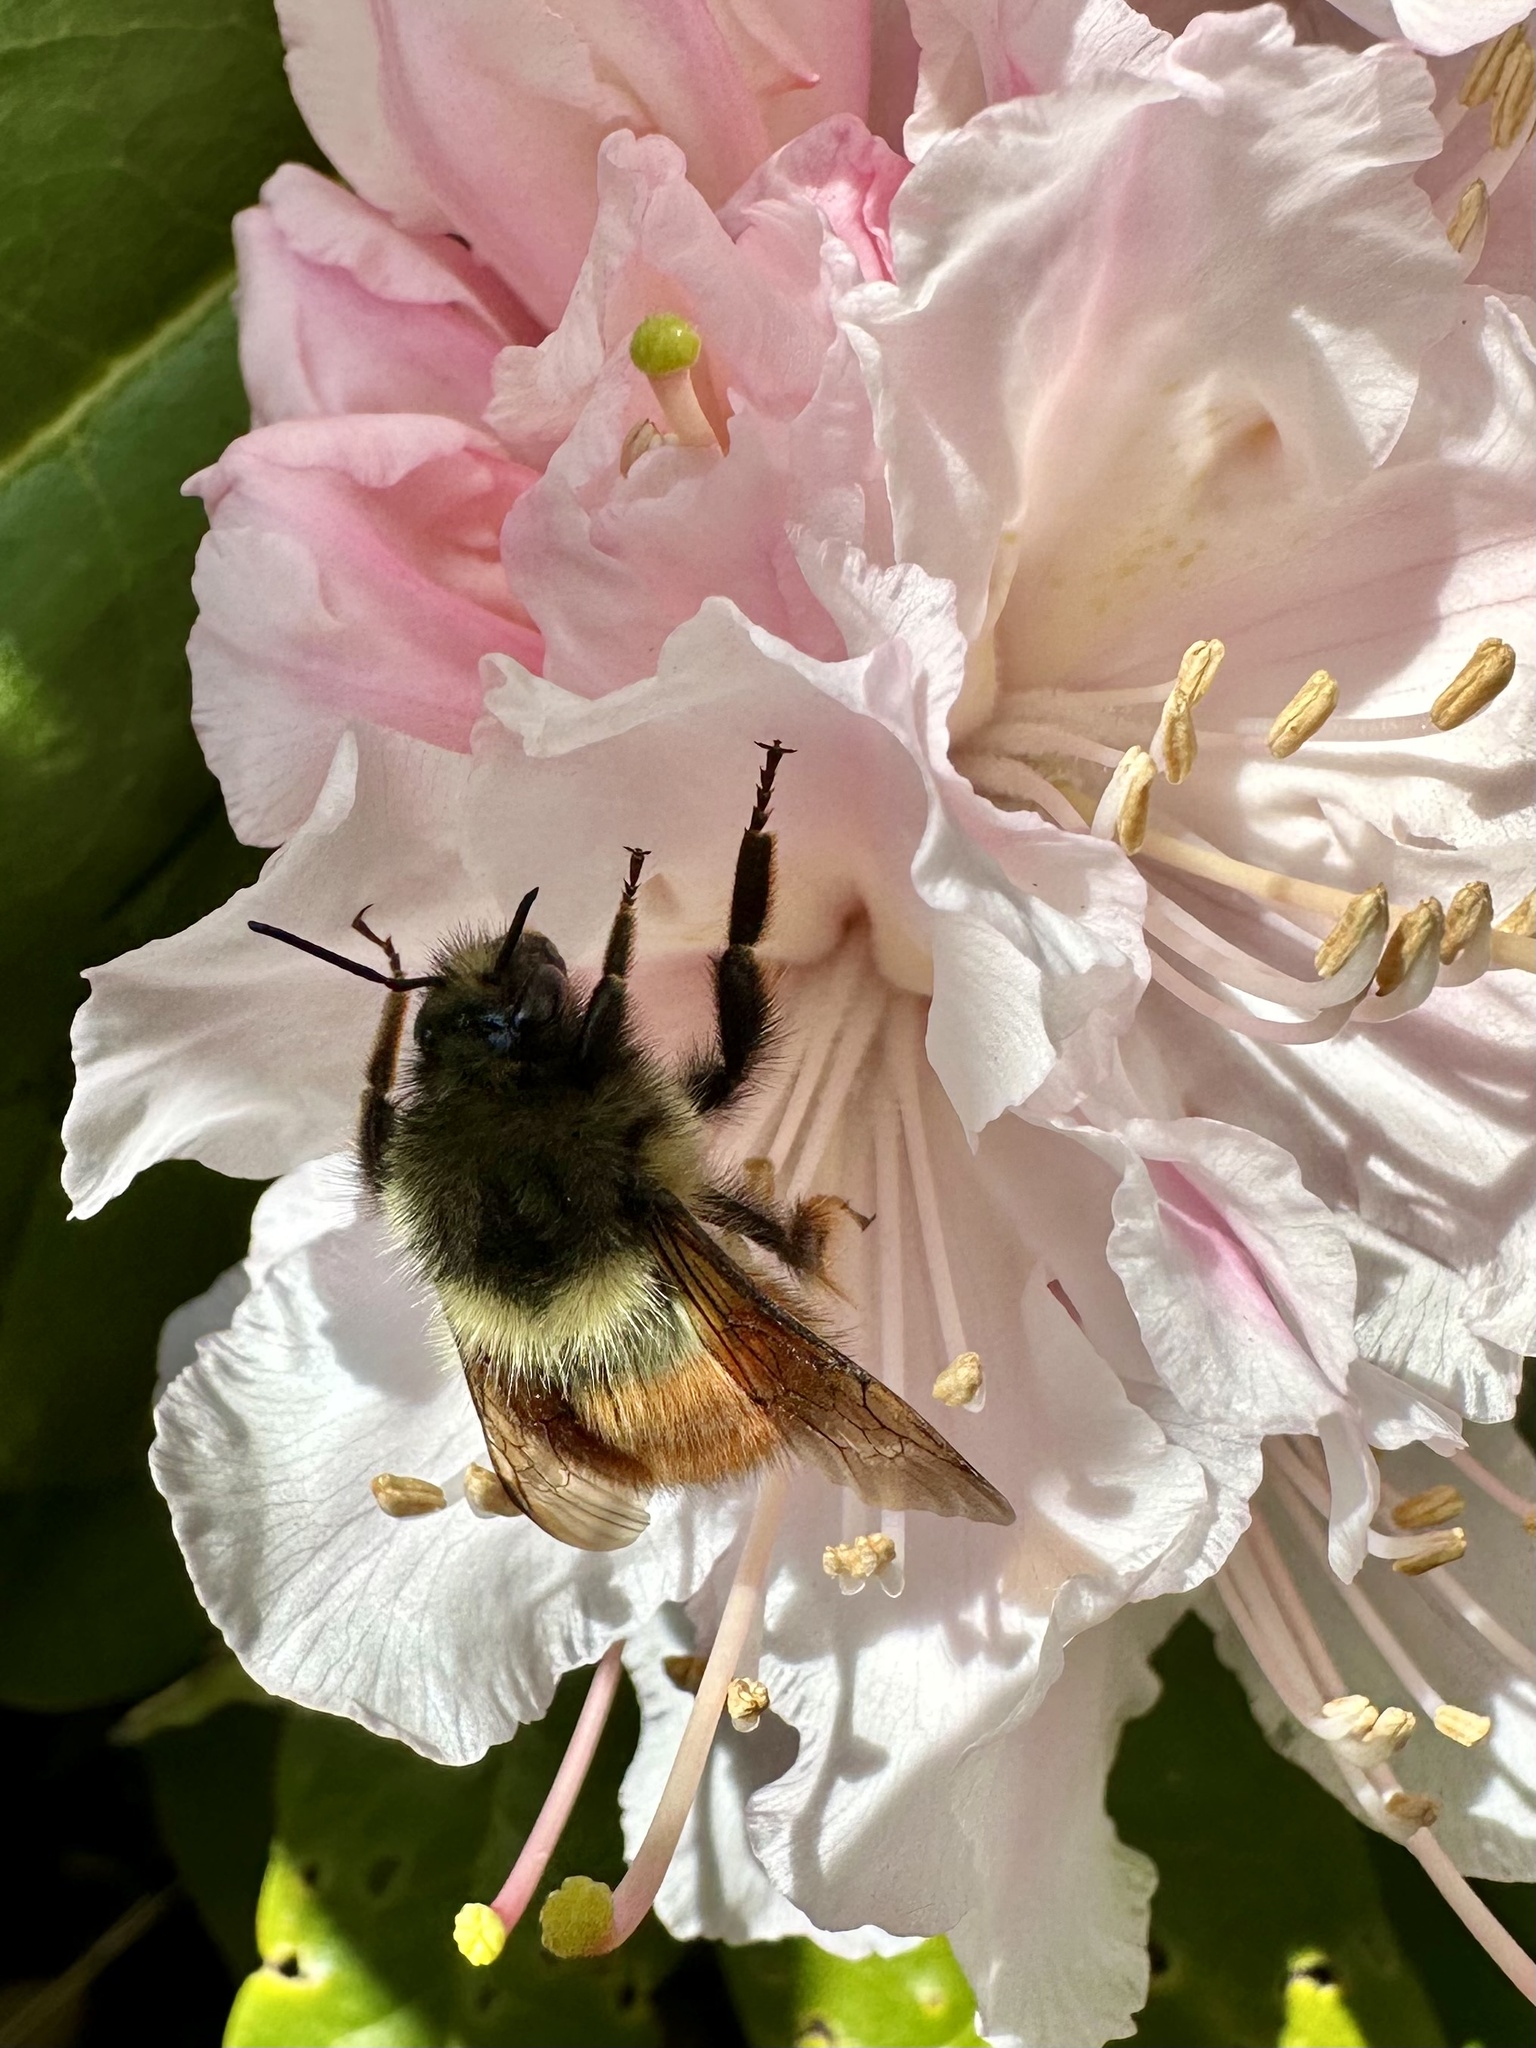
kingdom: Animalia
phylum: Arthropoda
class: Insecta
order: Hymenoptera
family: Apidae
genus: Bombus
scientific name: Bombus melanopygus
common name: Black tail bumble bee
